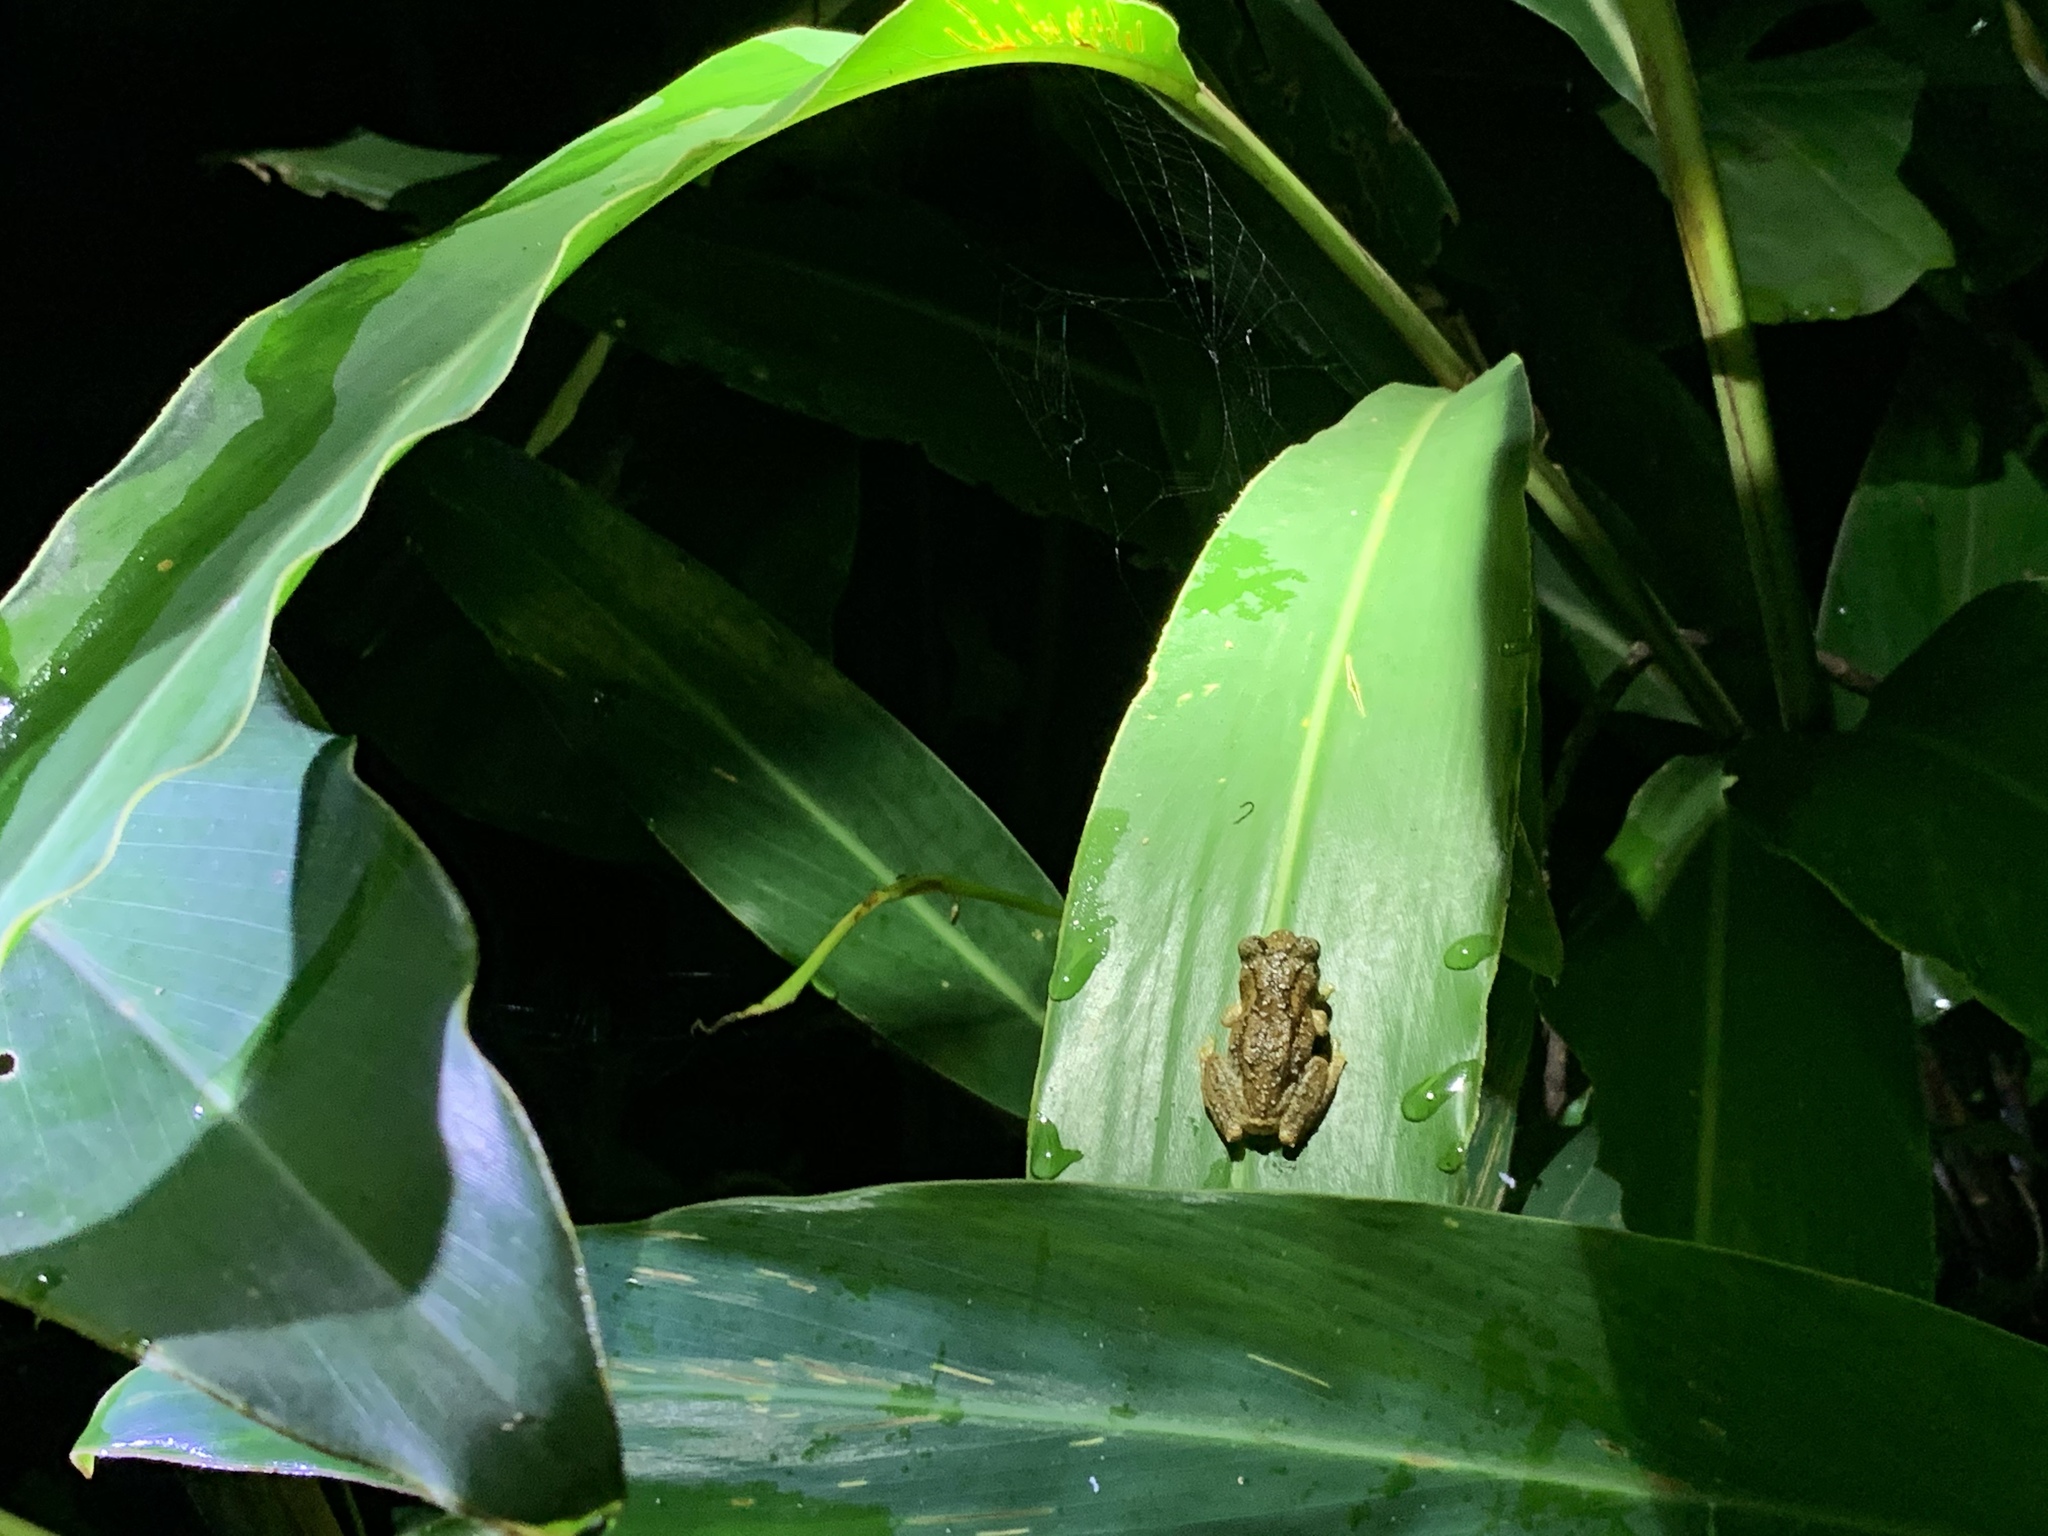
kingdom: Animalia
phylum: Chordata
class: Amphibia
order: Anura
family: Rhacophoridae
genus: Kurixalus
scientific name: Kurixalus idiootocus
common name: Temple treefrog
